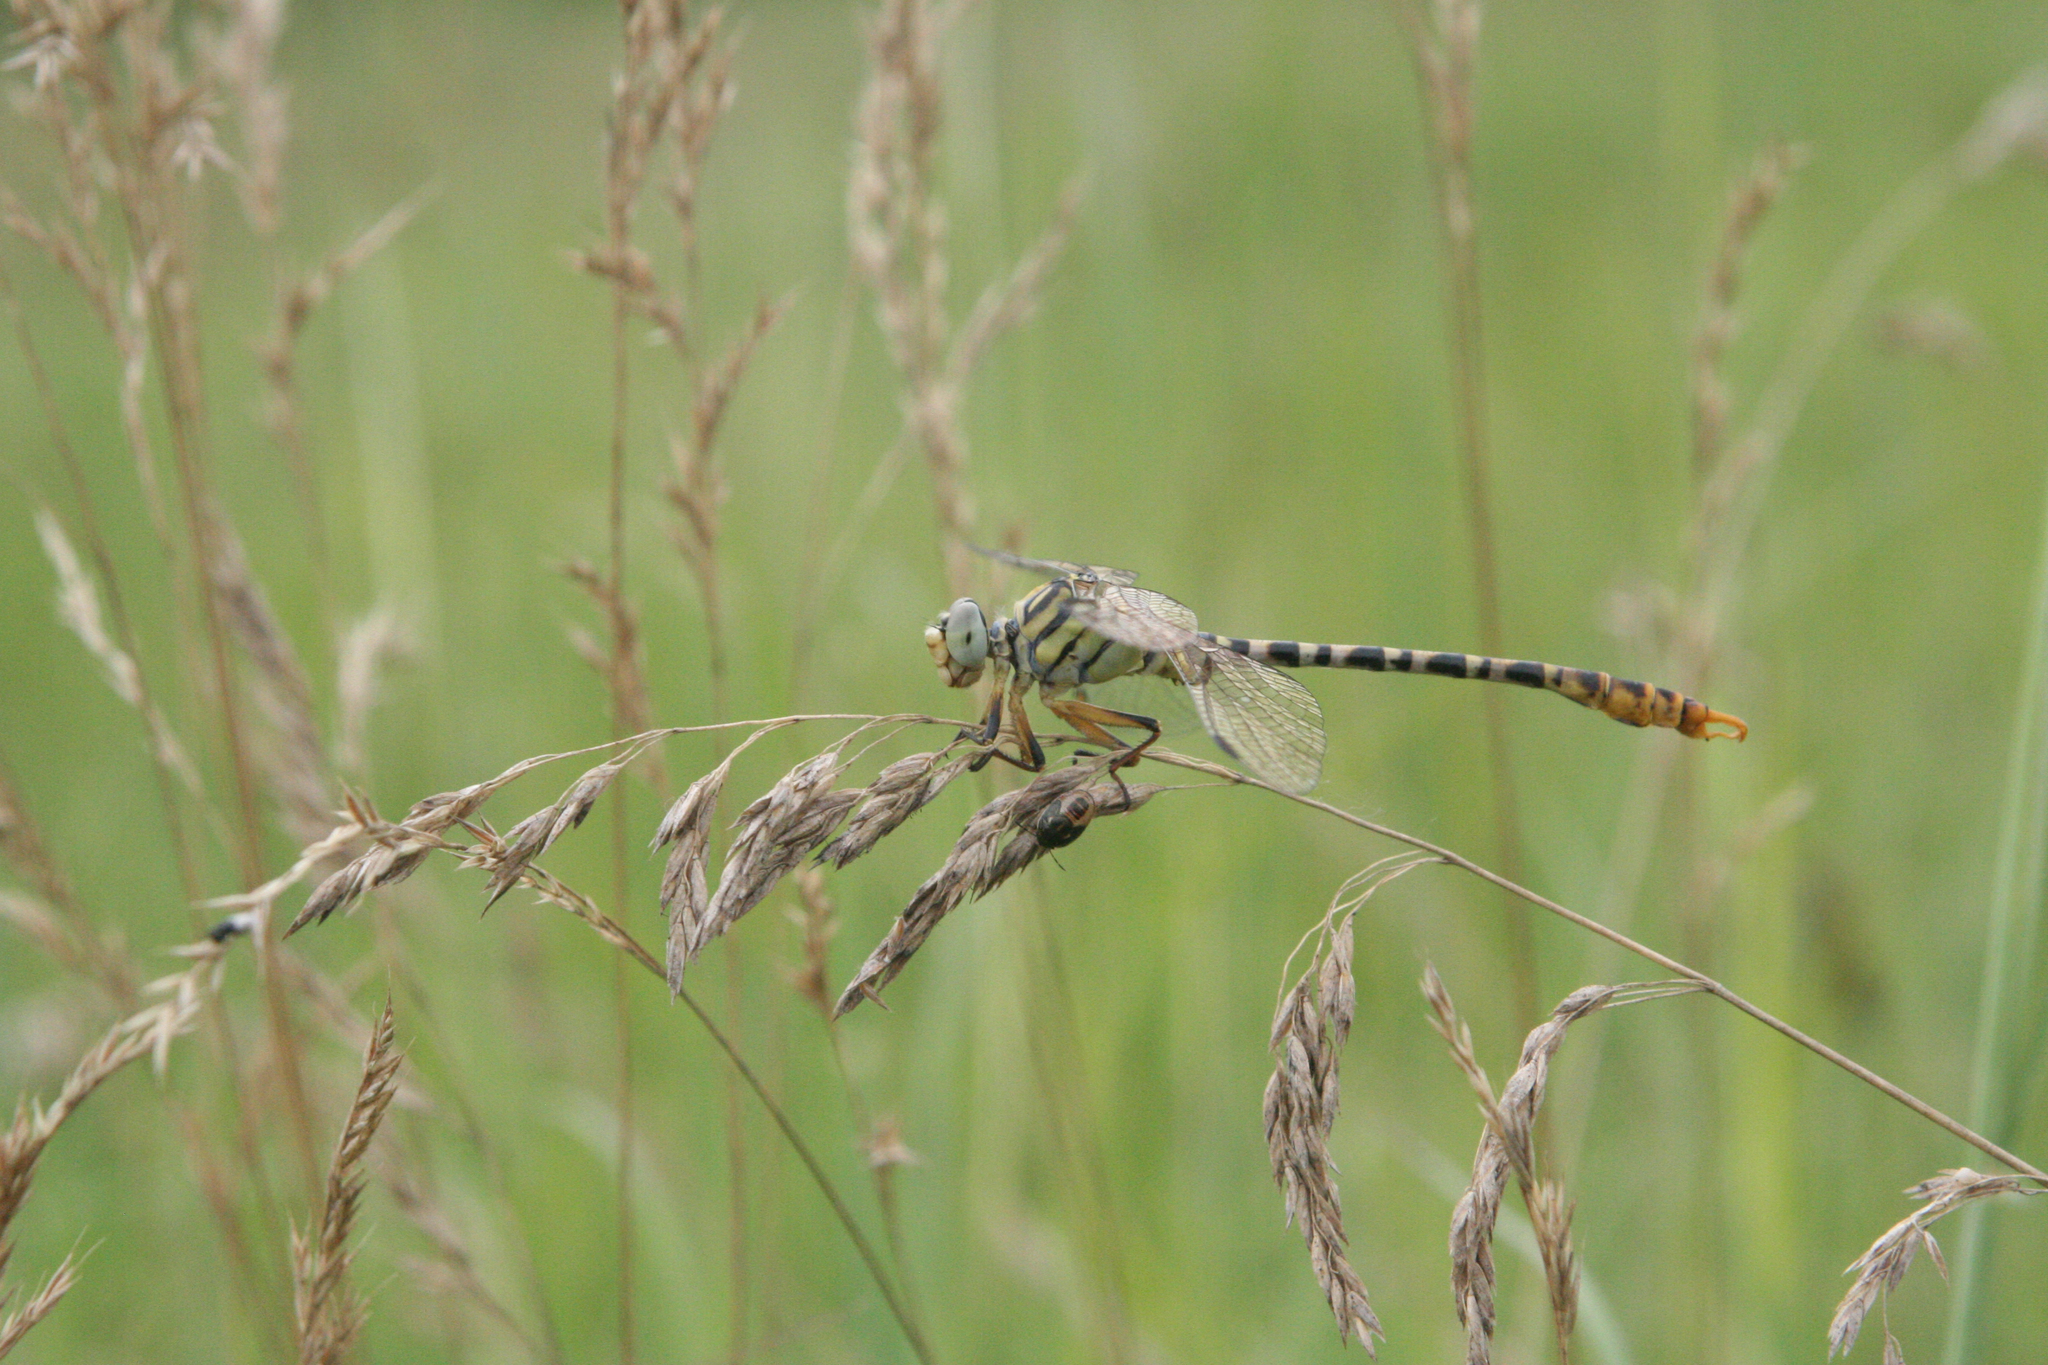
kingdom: Animalia
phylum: Arthropoda
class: Insecta
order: Odonata
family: Gomphidae
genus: Onychogomphus
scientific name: Onychogomphus flexuosus
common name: Waved pincertail
